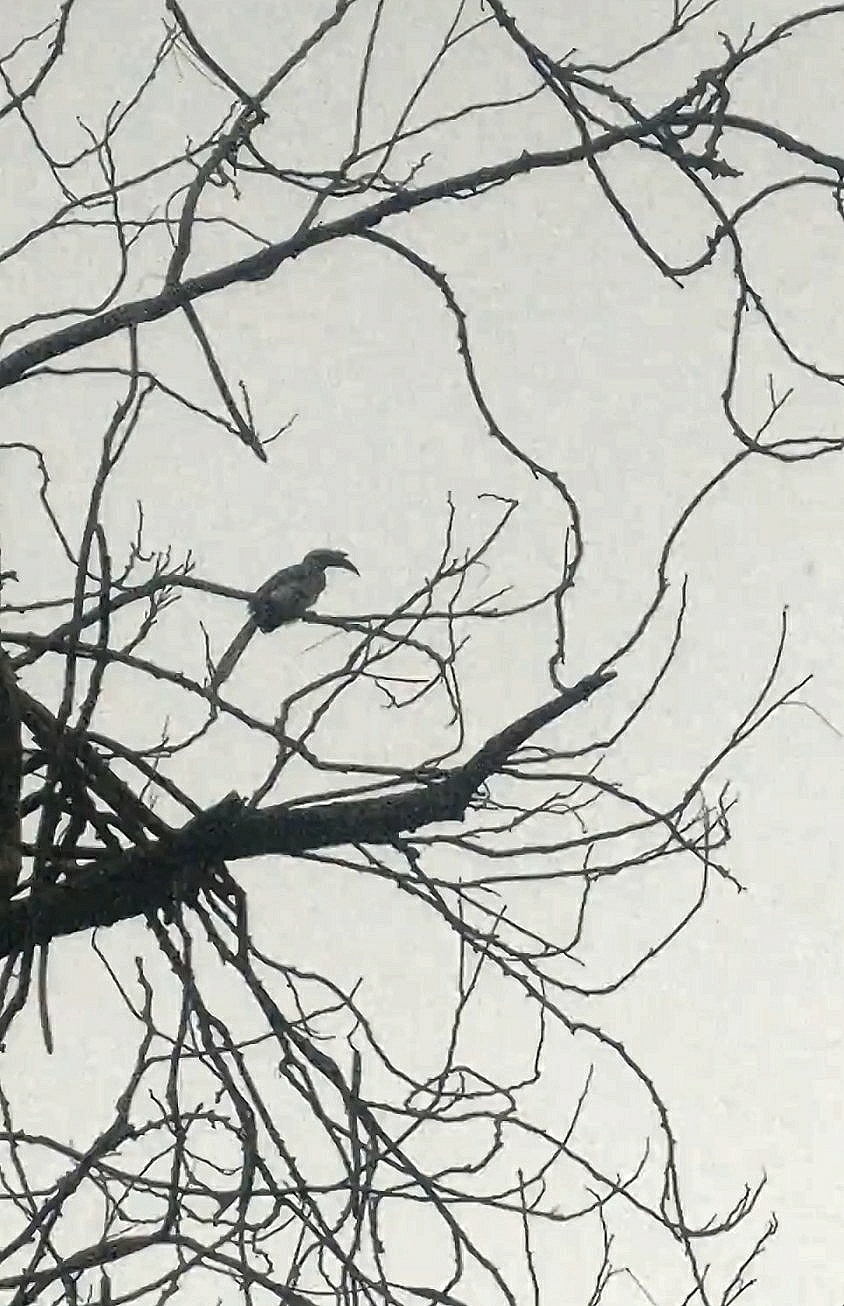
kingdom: Animalia
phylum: Chordata
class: Aves
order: Bucerotiformes
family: Bucerotidae
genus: Ocyceros
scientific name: Ocyceros birostris
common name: Indian grey hornbill
